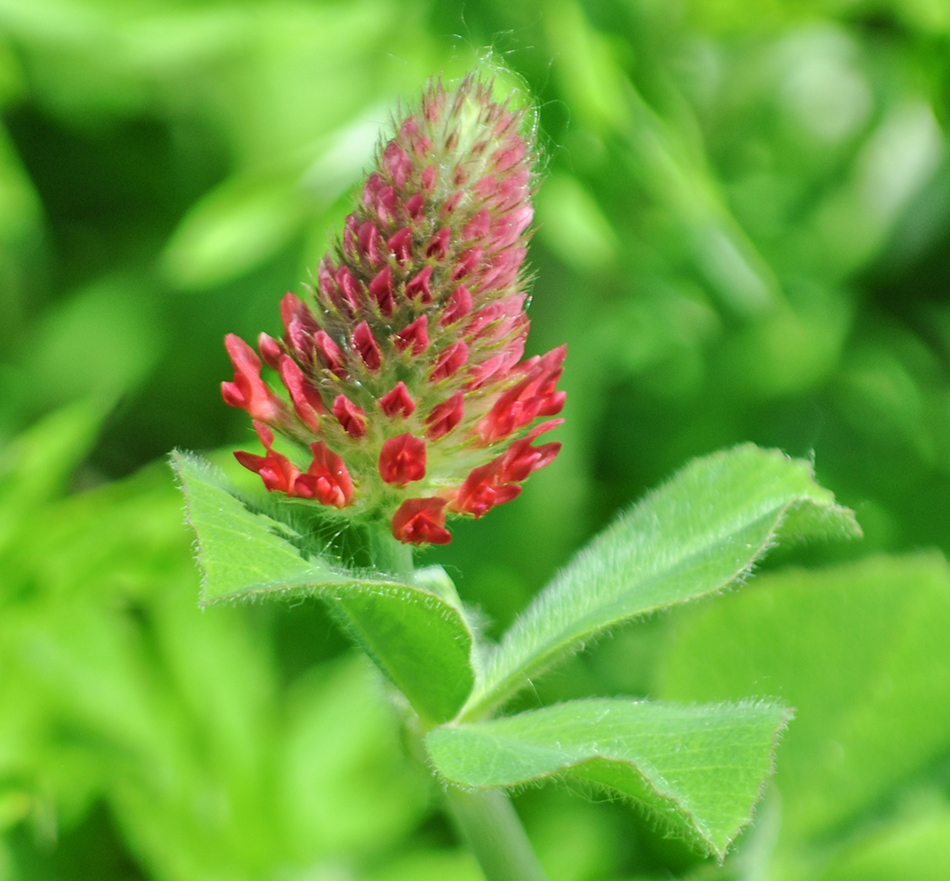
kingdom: Plantae
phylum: Tracheophyta
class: Magnoliopsida
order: Fabales
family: Fabaceae
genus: Trifolium
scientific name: Trifolium incarnatum
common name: Crimson clover
